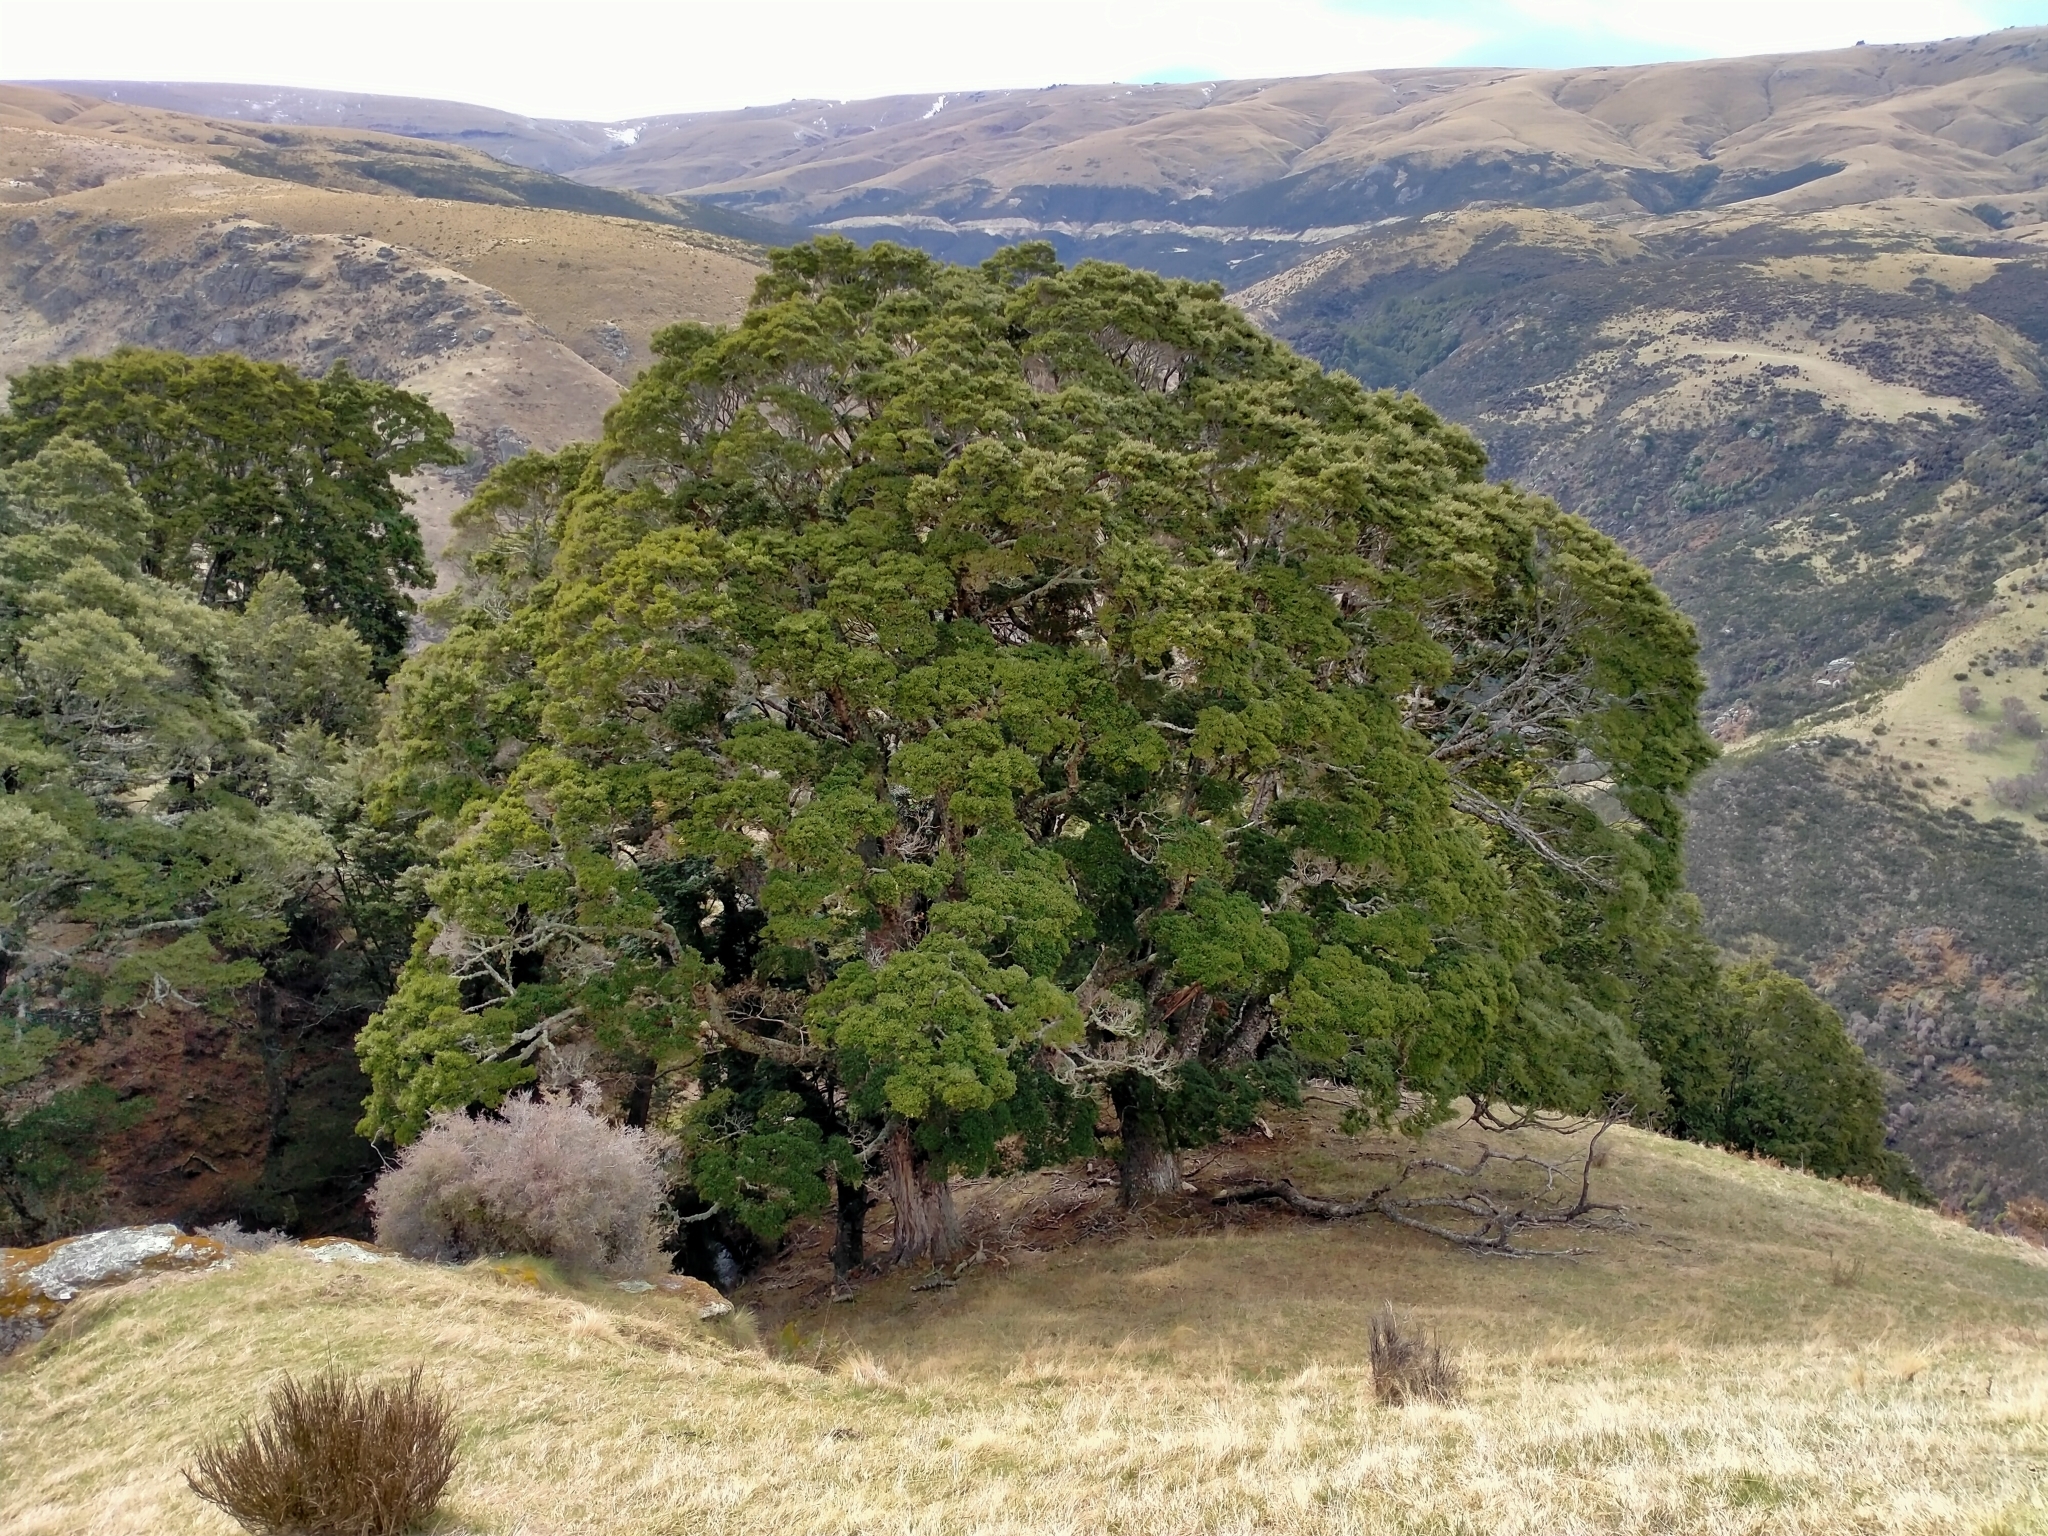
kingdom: Plantae
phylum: Tracheophyta
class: Magnoliopsida
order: Fagales
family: Nothofagaceae
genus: Nothofagus
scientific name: Nothofagus menziesii
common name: Silver beech
